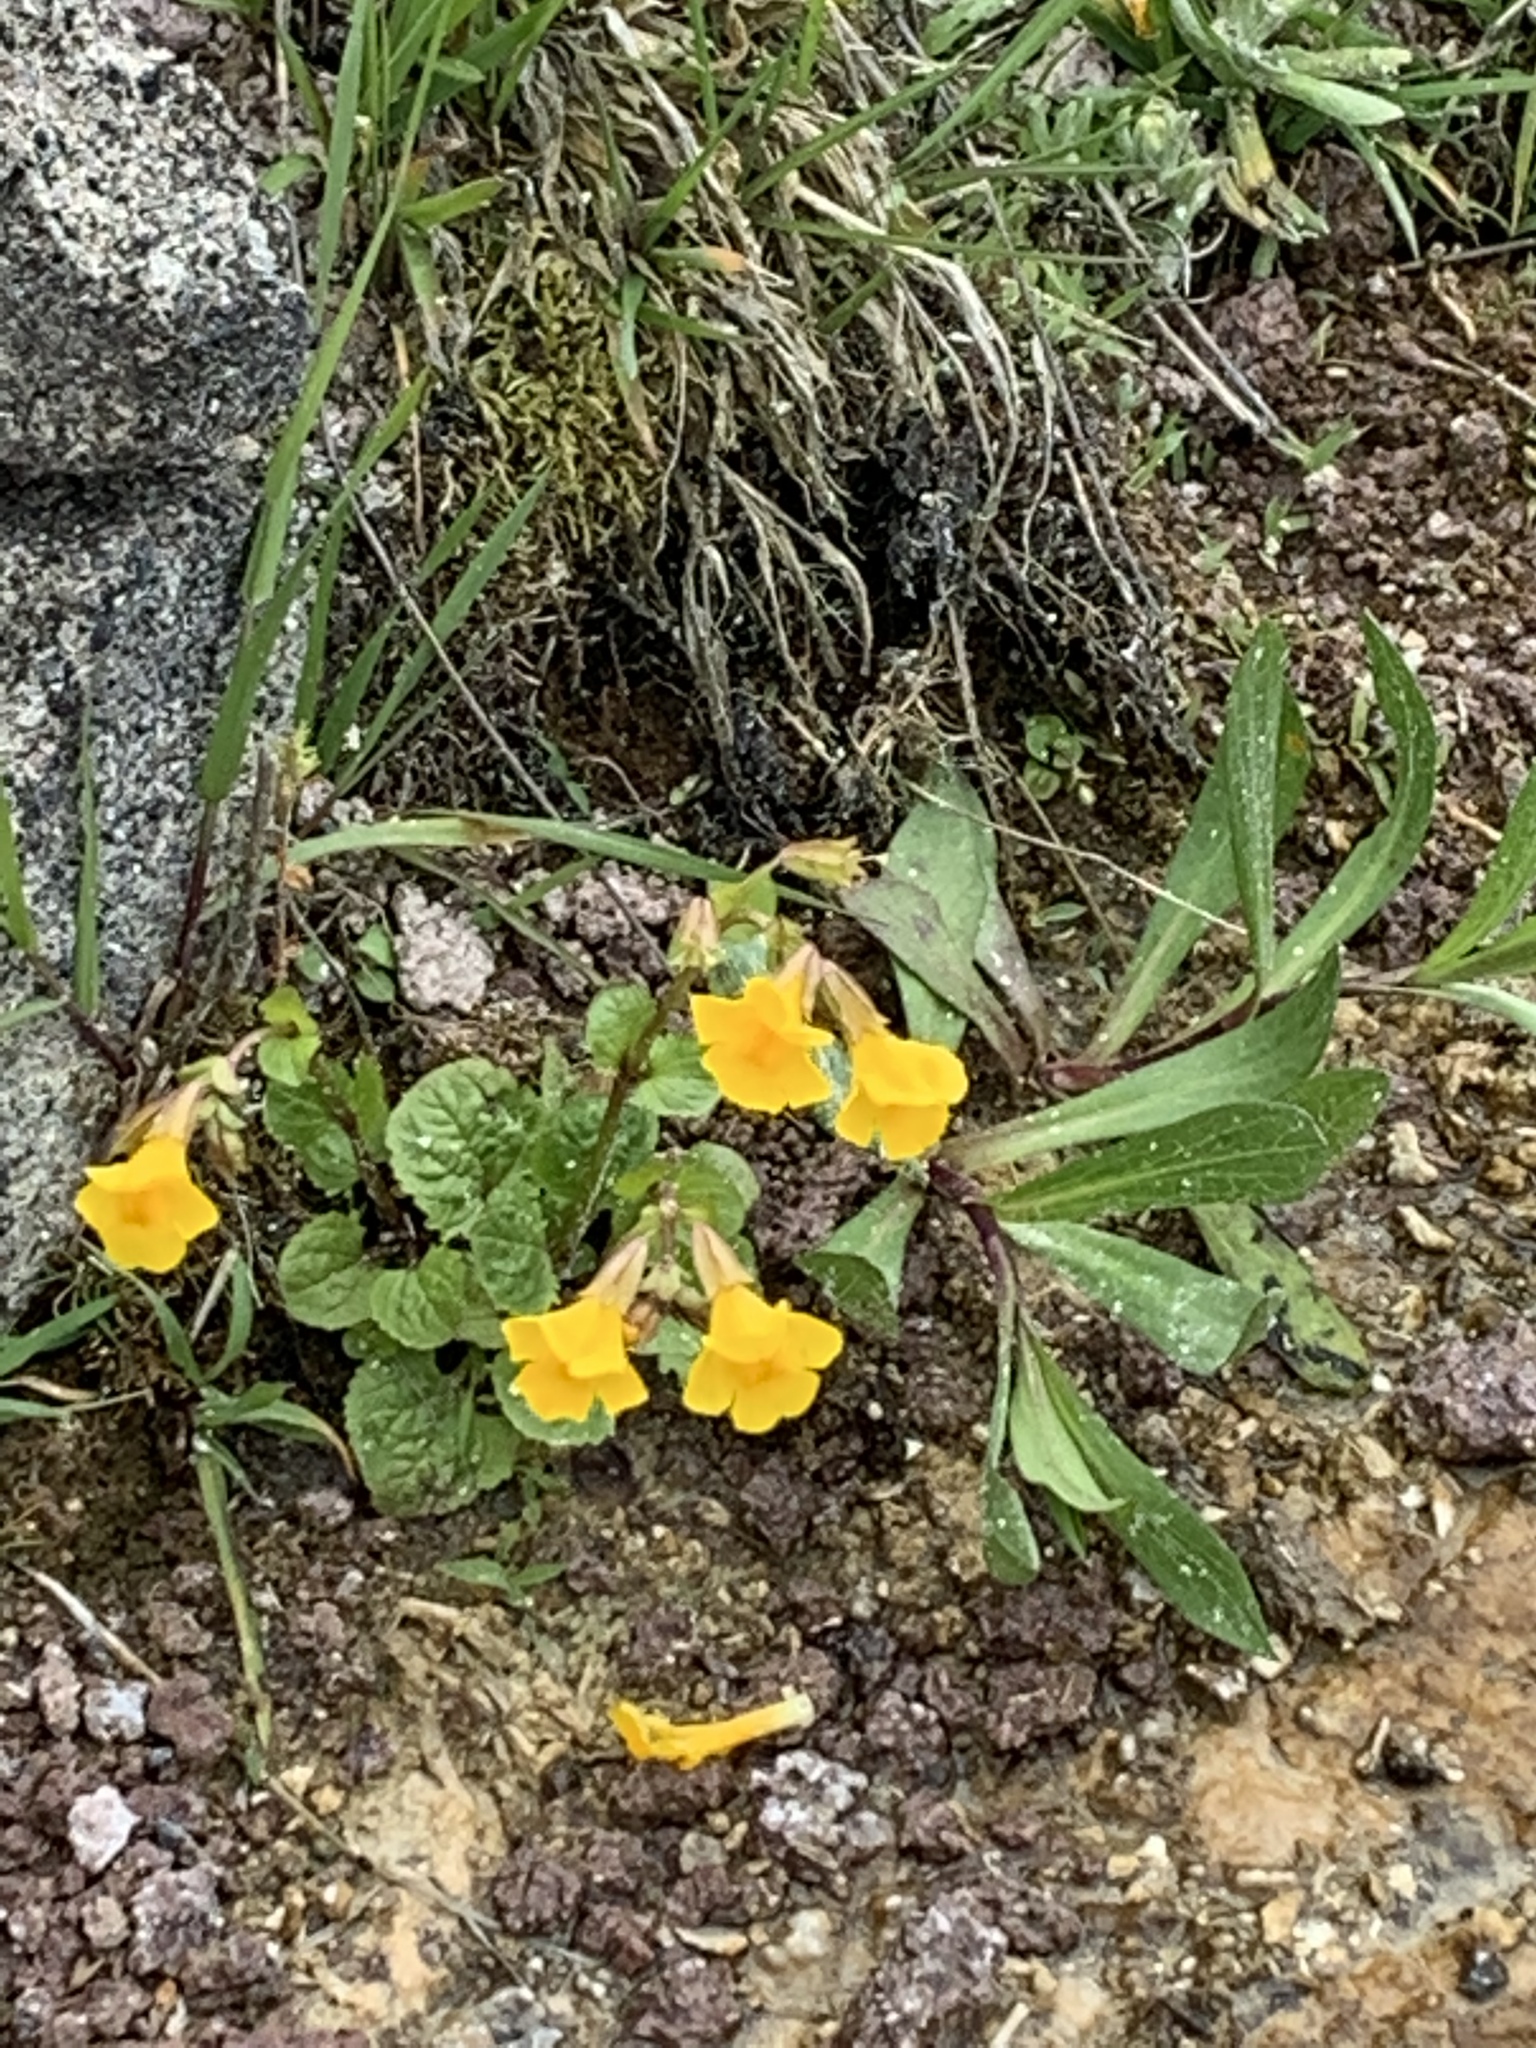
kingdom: Plantae
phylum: Tracheophyta
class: Magnoliopsida
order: Lamiales
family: Phrymaceae
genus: Erythranthe
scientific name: Erythranthe guttata
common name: Monkeyflower
